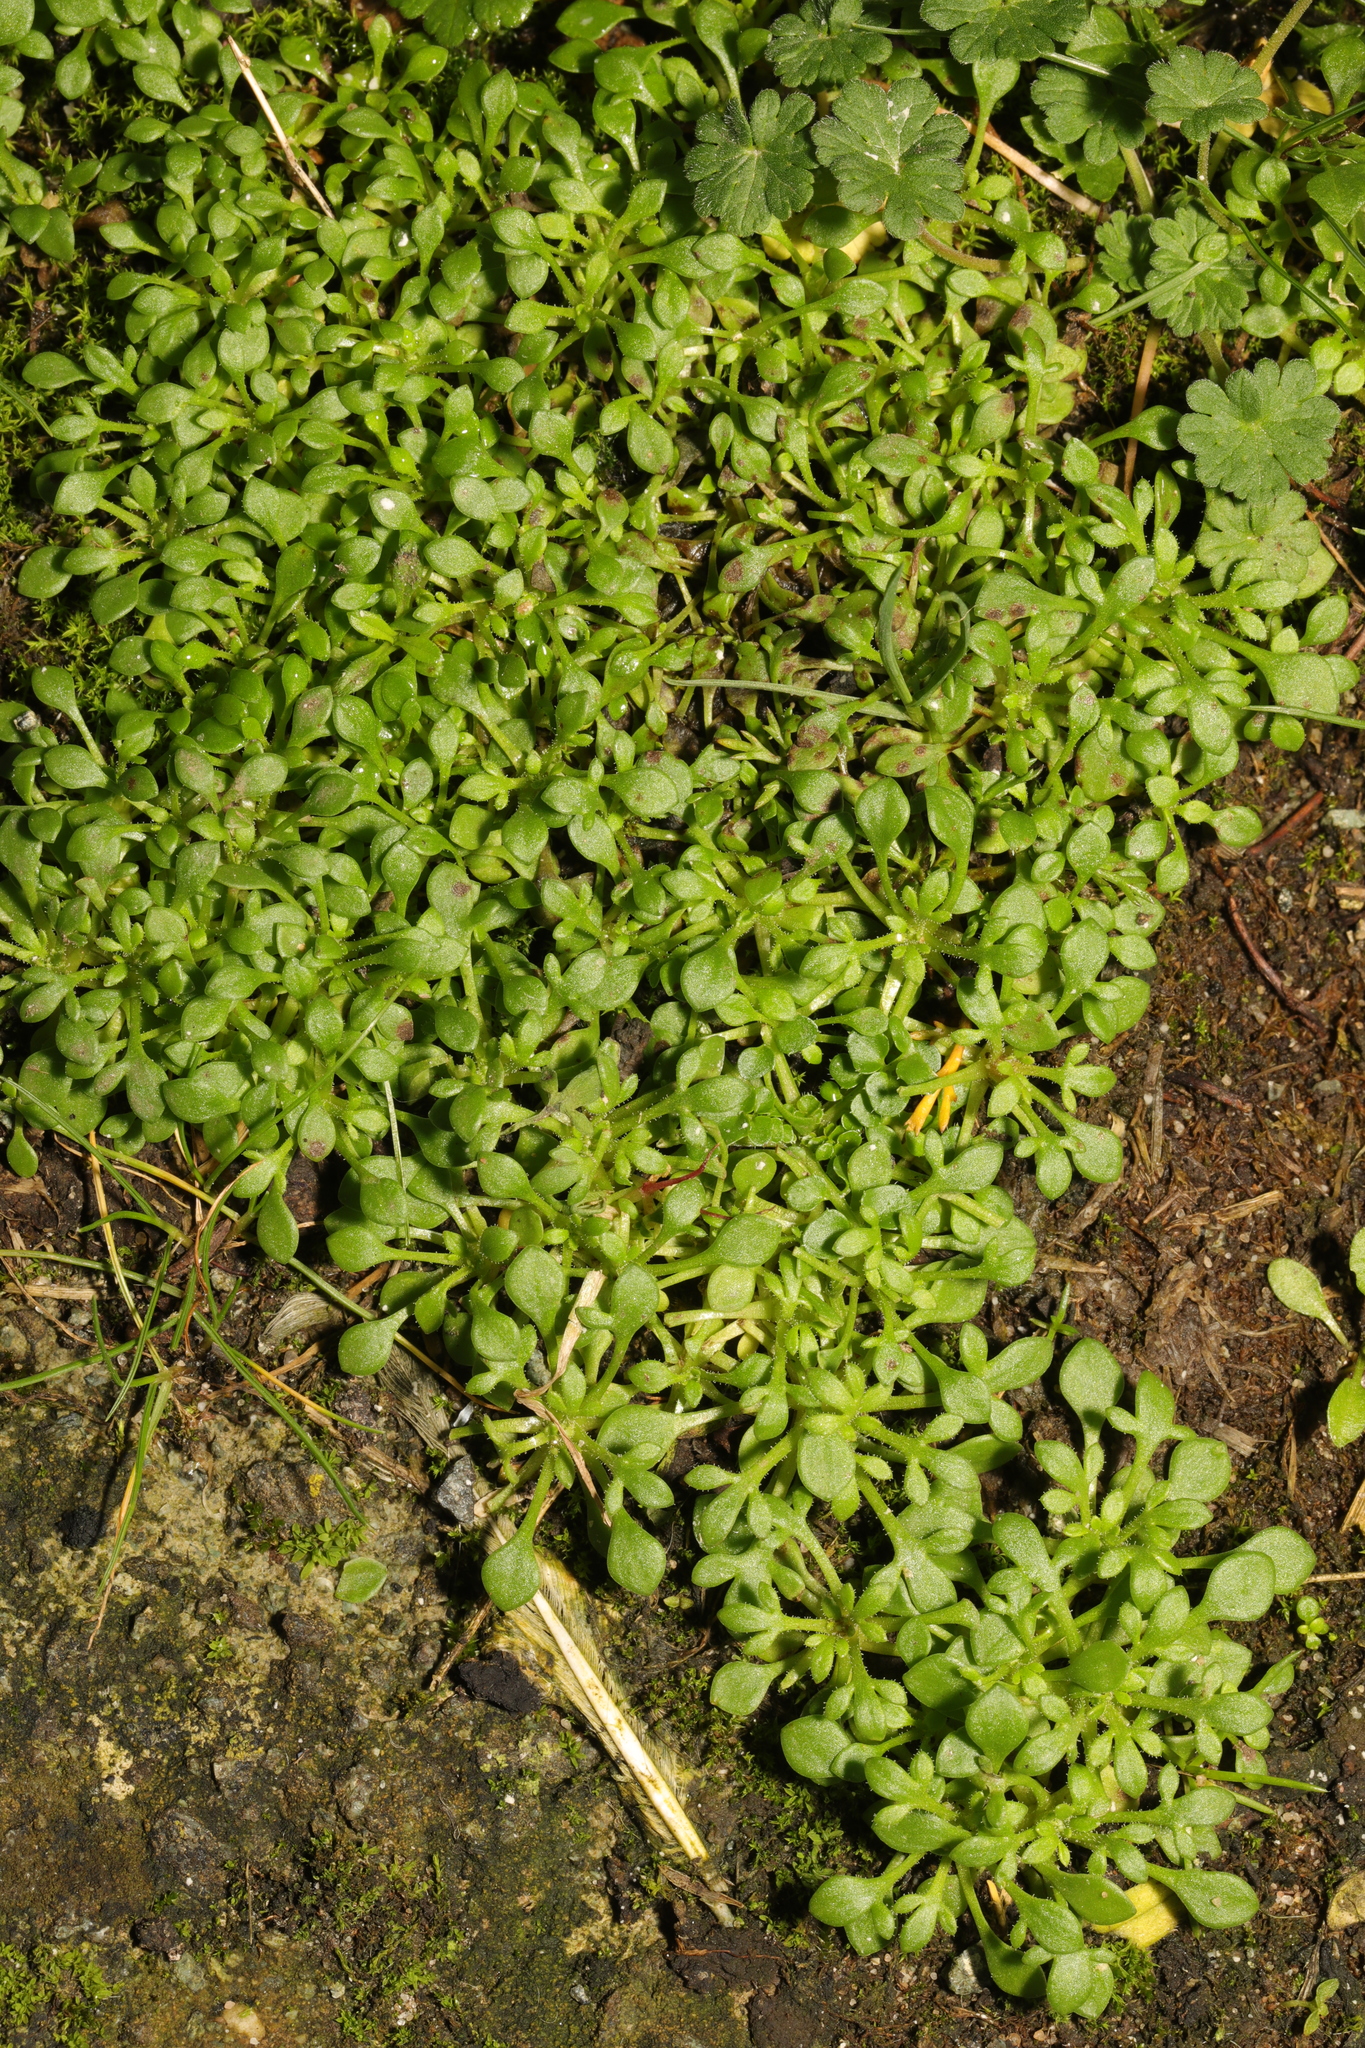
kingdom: Plantae
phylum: Tracheophyta
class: Magnoliopsida
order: Saxifragales
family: Saxifragaceae
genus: Saxifraga
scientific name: Saxifraga tridactylites
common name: Rue-leaved saxifrage
